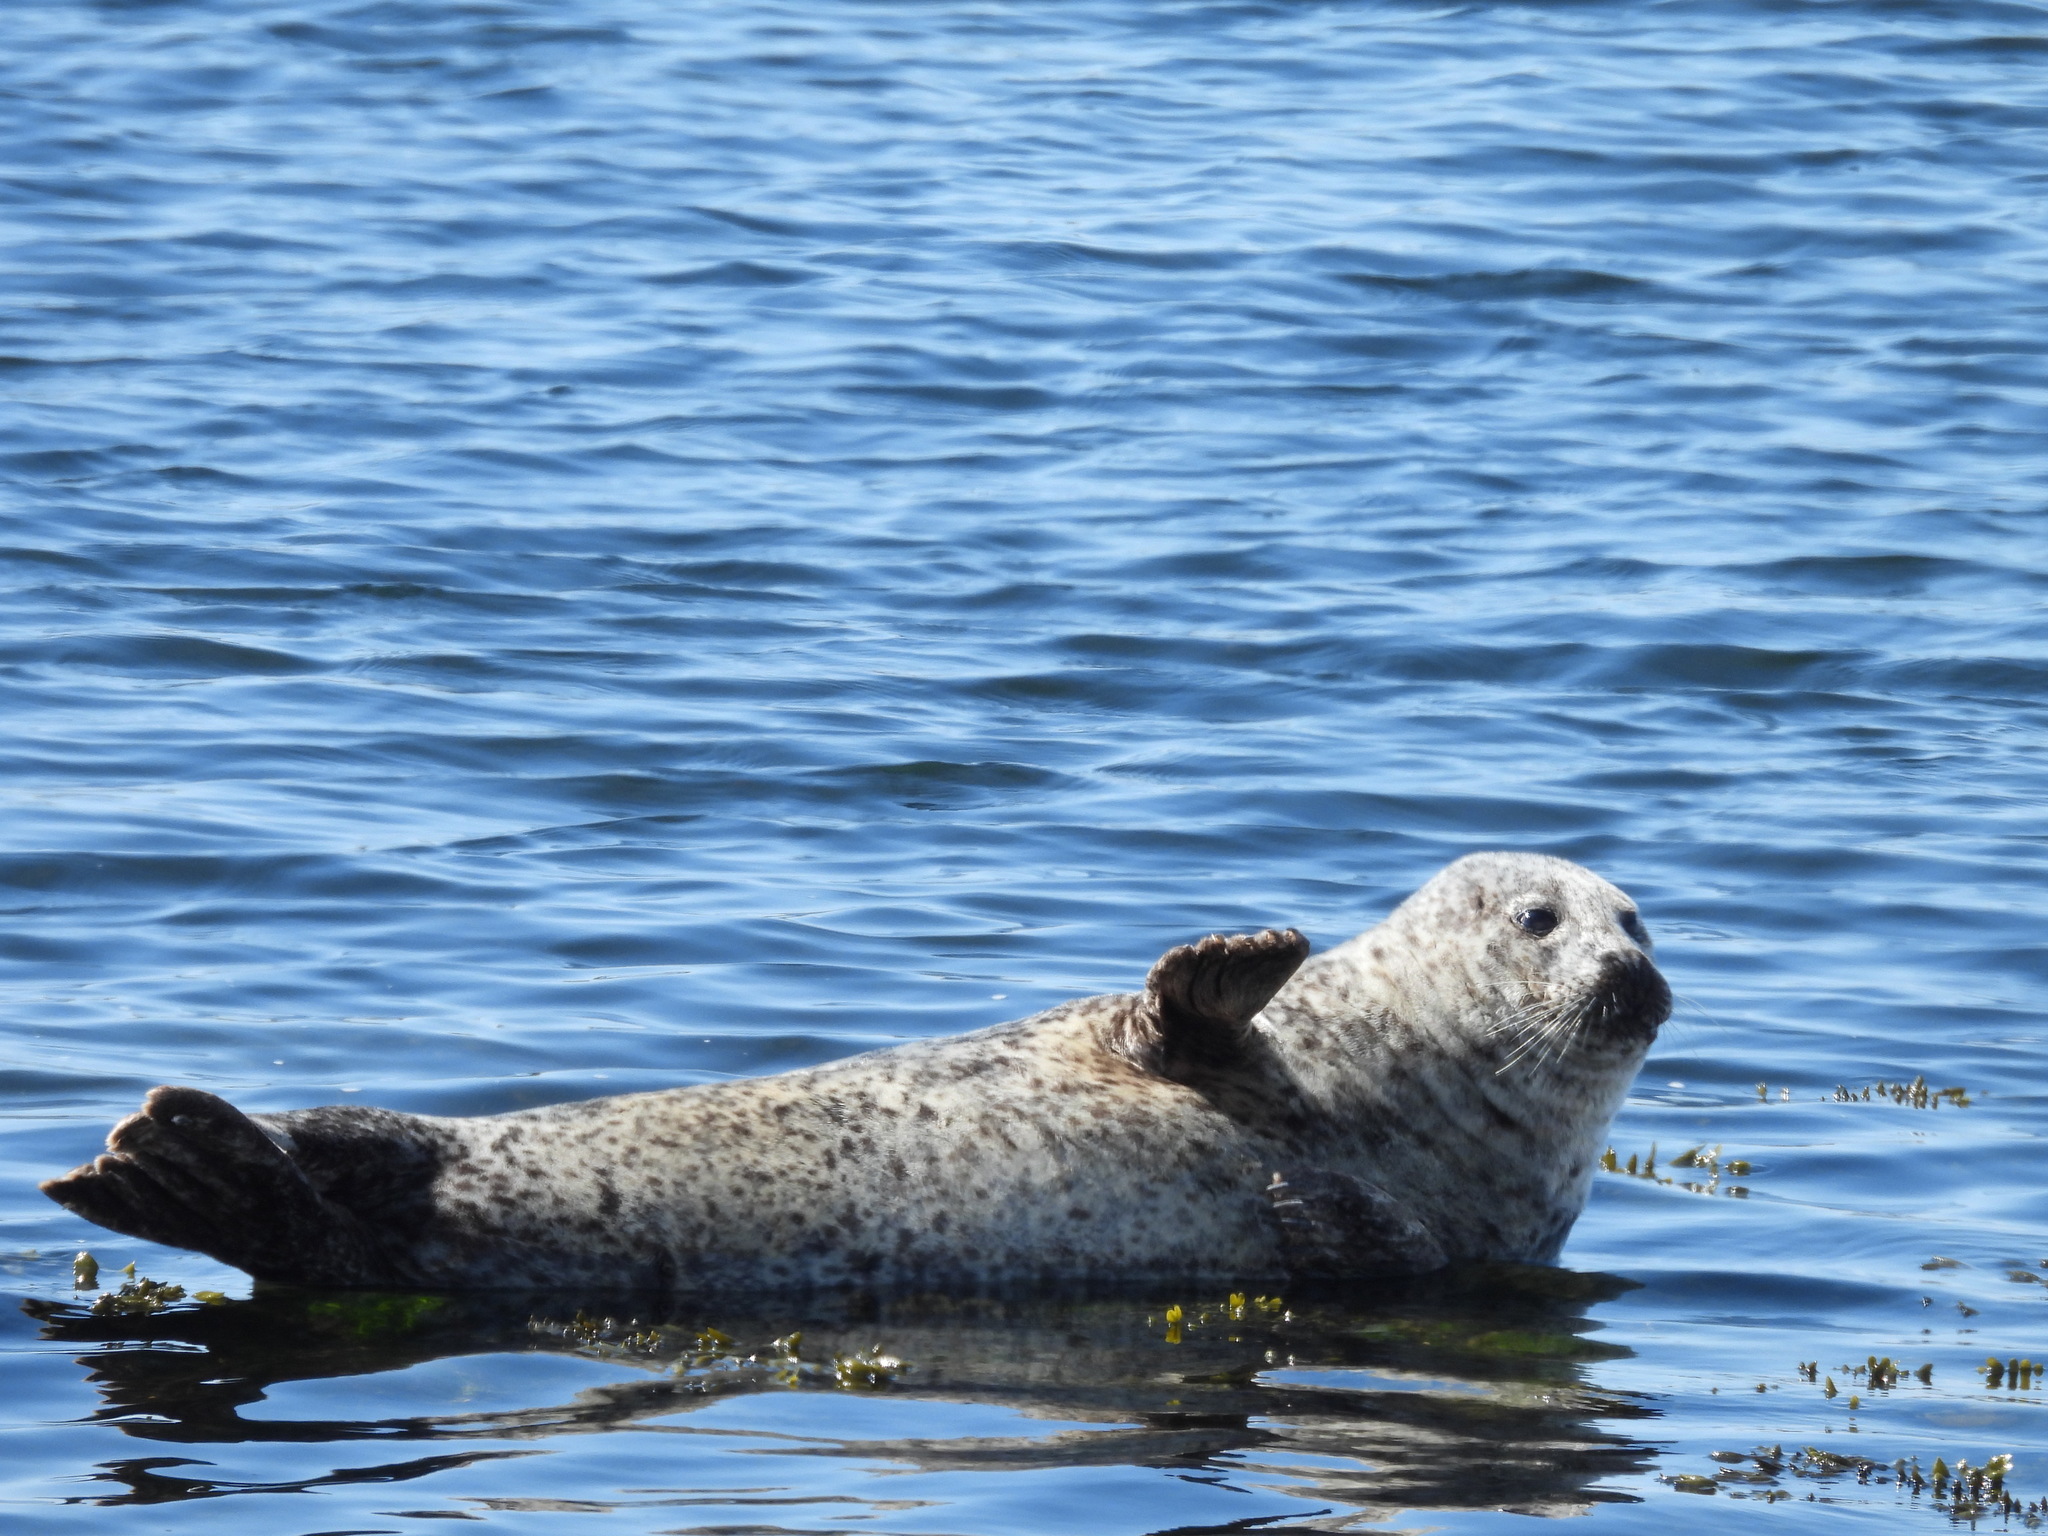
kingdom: Animalia
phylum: Chordata
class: Mammalia
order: Carnivora
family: Phocidae
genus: Phoca
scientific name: Phoca vitulina
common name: Harbor seal
